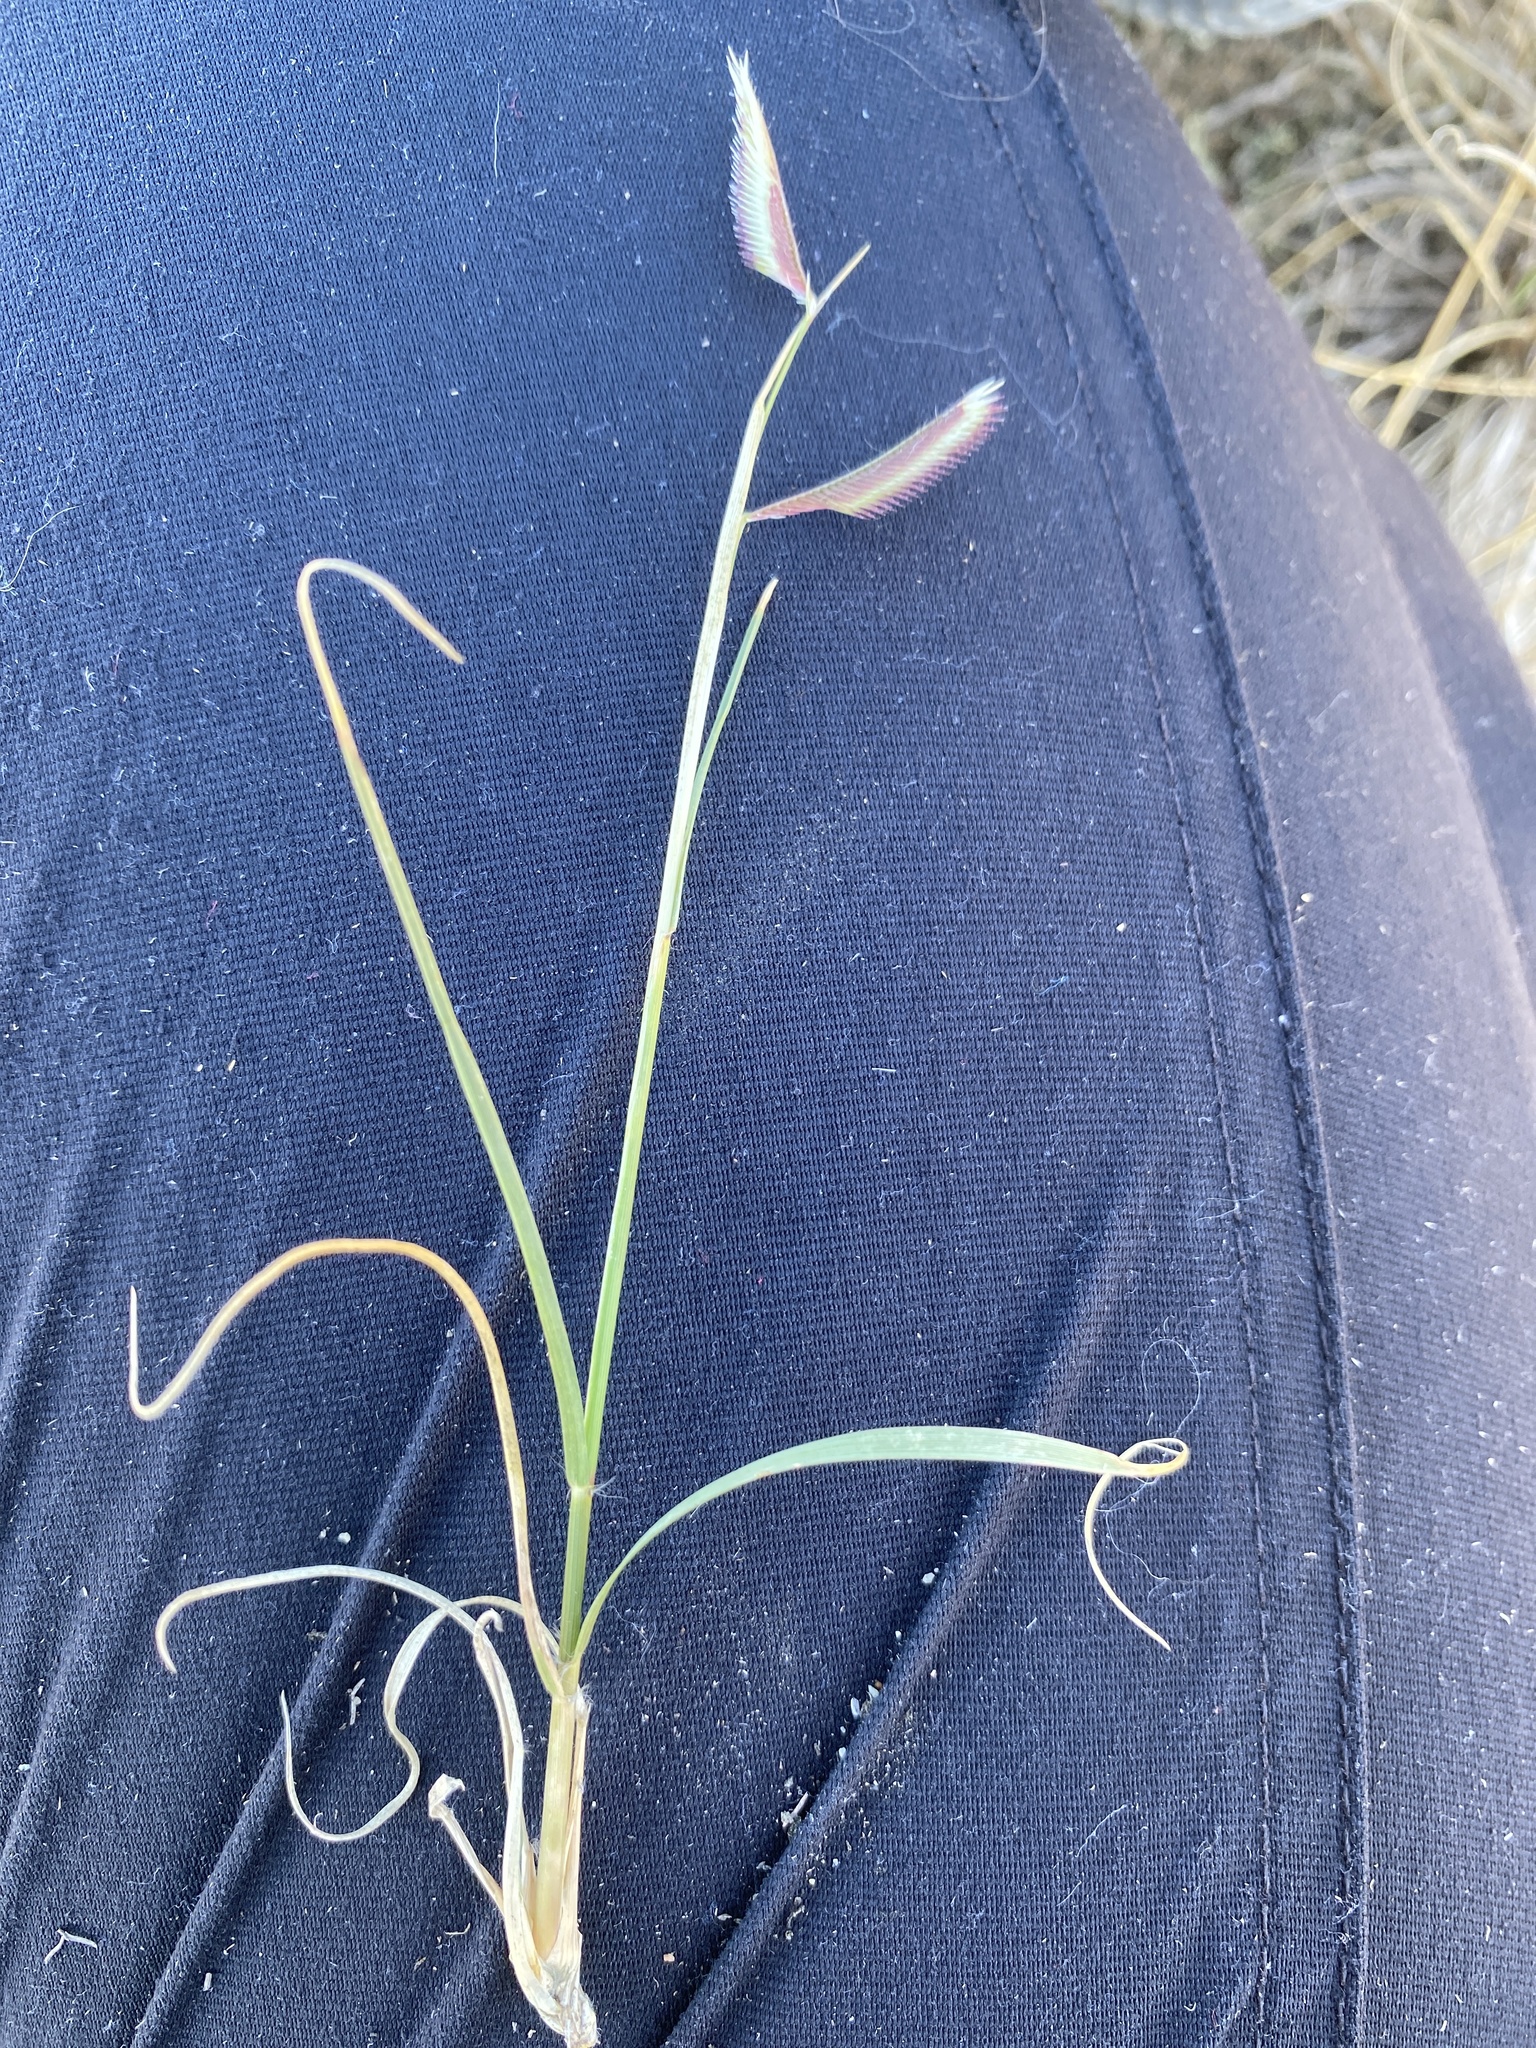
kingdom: Plantae
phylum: Tracheophyta
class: Liliopsida
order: Poales
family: Poaceae
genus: Bouteloua
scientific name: Bouteloua gracilis
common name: Blue grama
